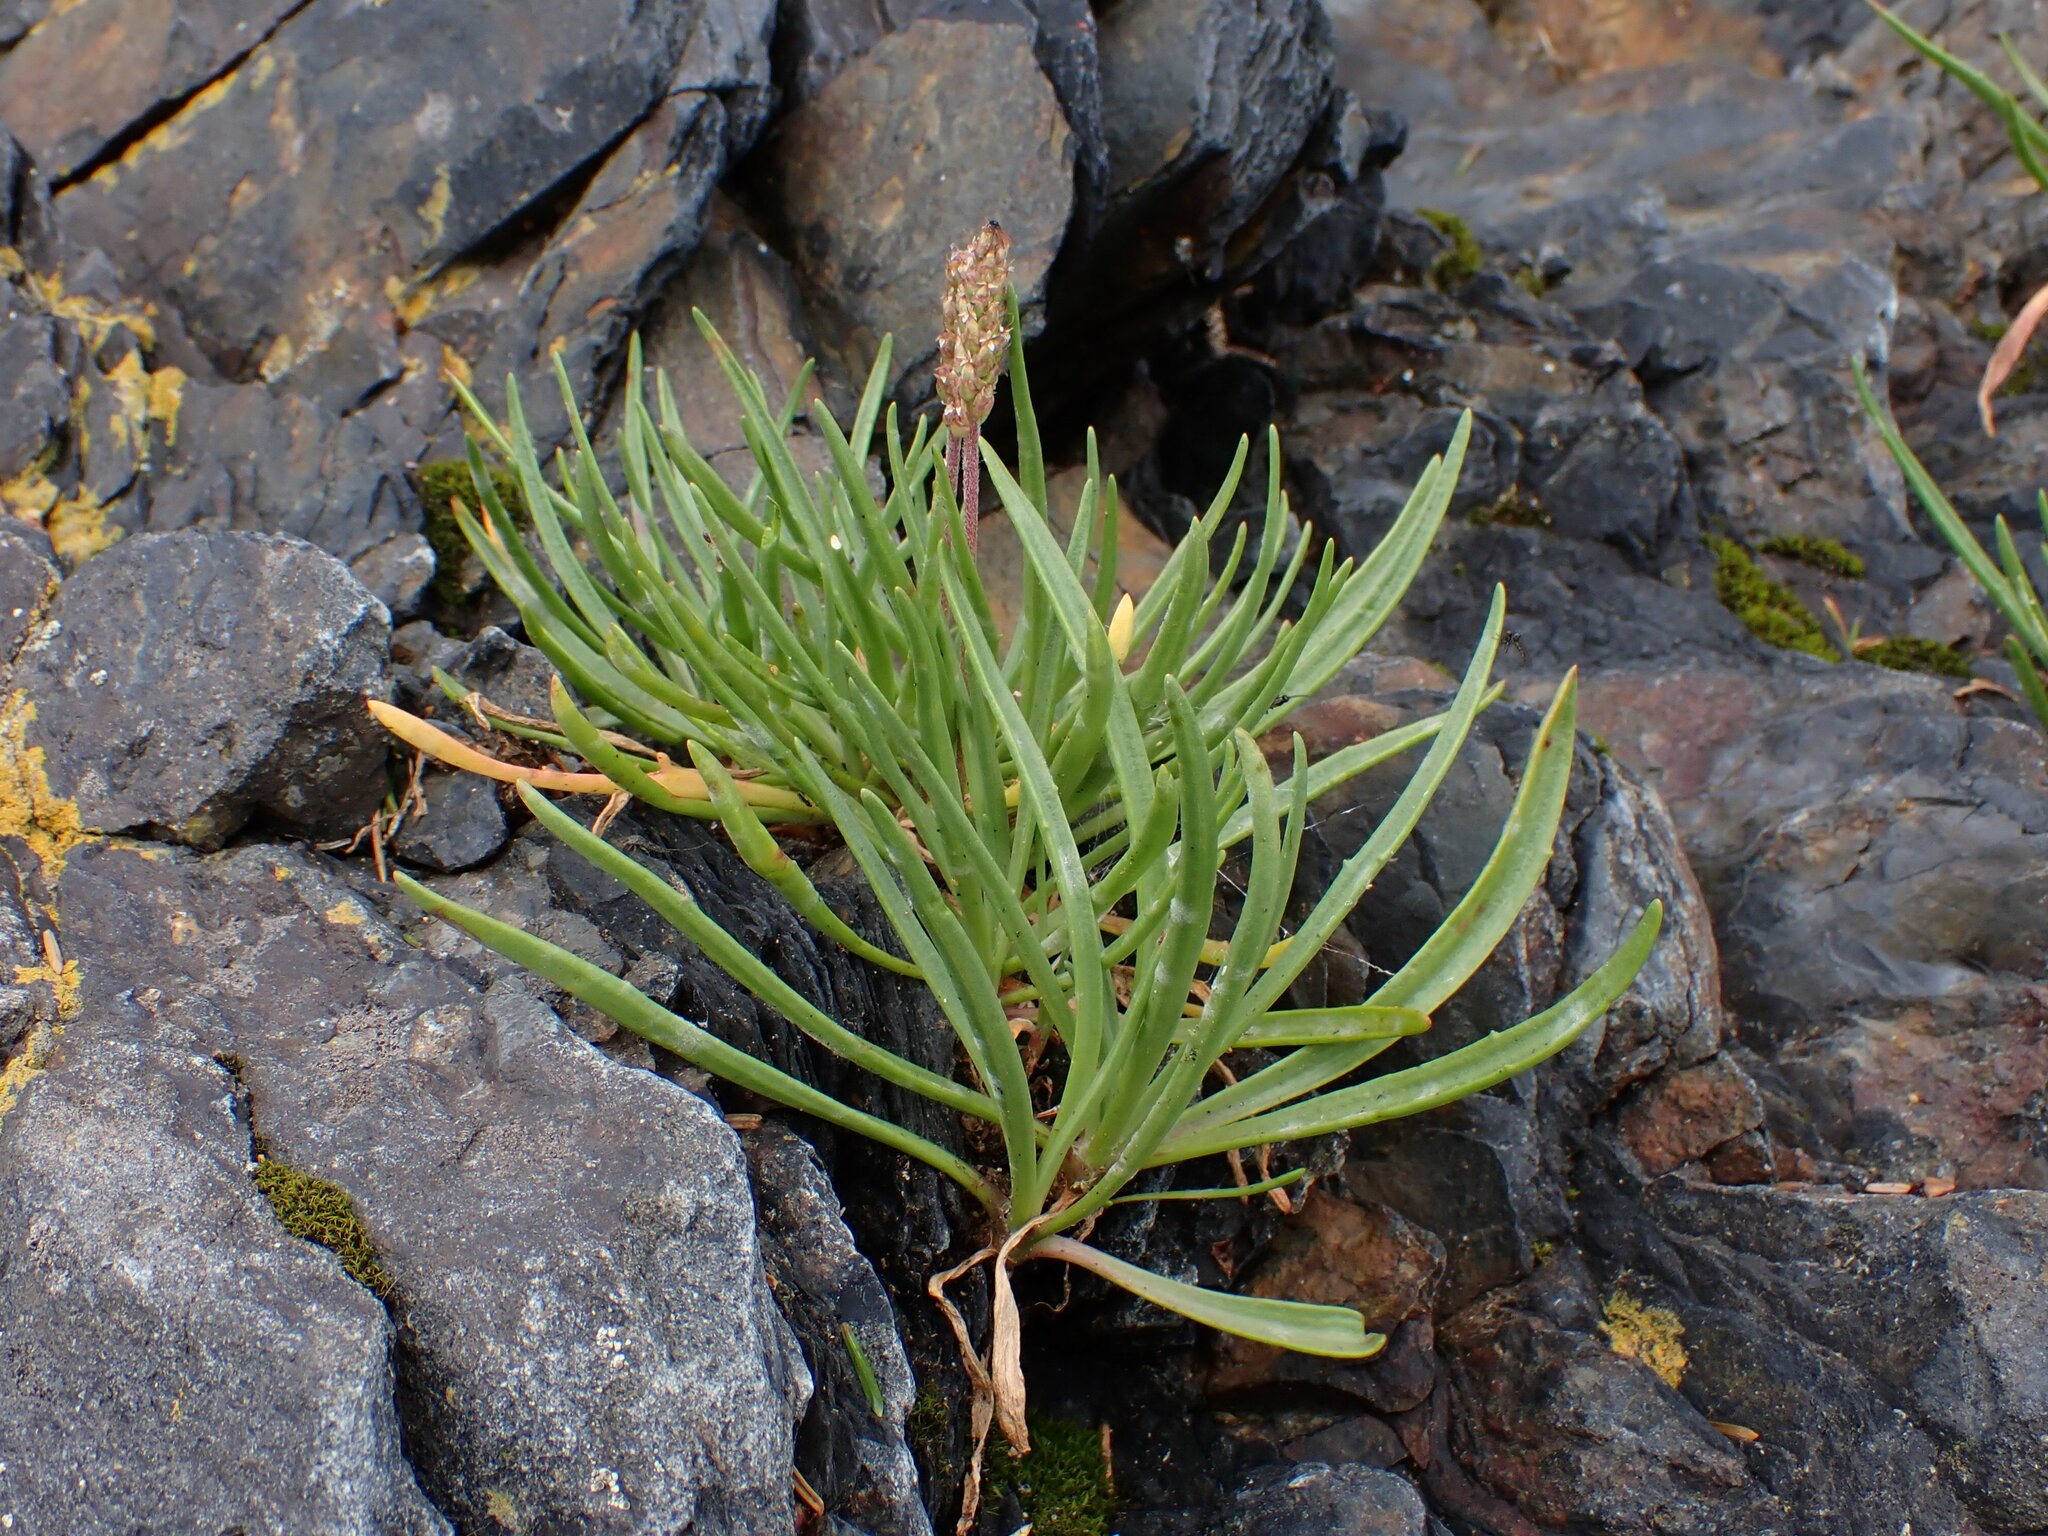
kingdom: Plantae
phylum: Tracheophyta
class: Magnoliopsida
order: Lamiales
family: Plantaginaceae
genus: Plantago
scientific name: Plantago maritima
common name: Sea plantain
